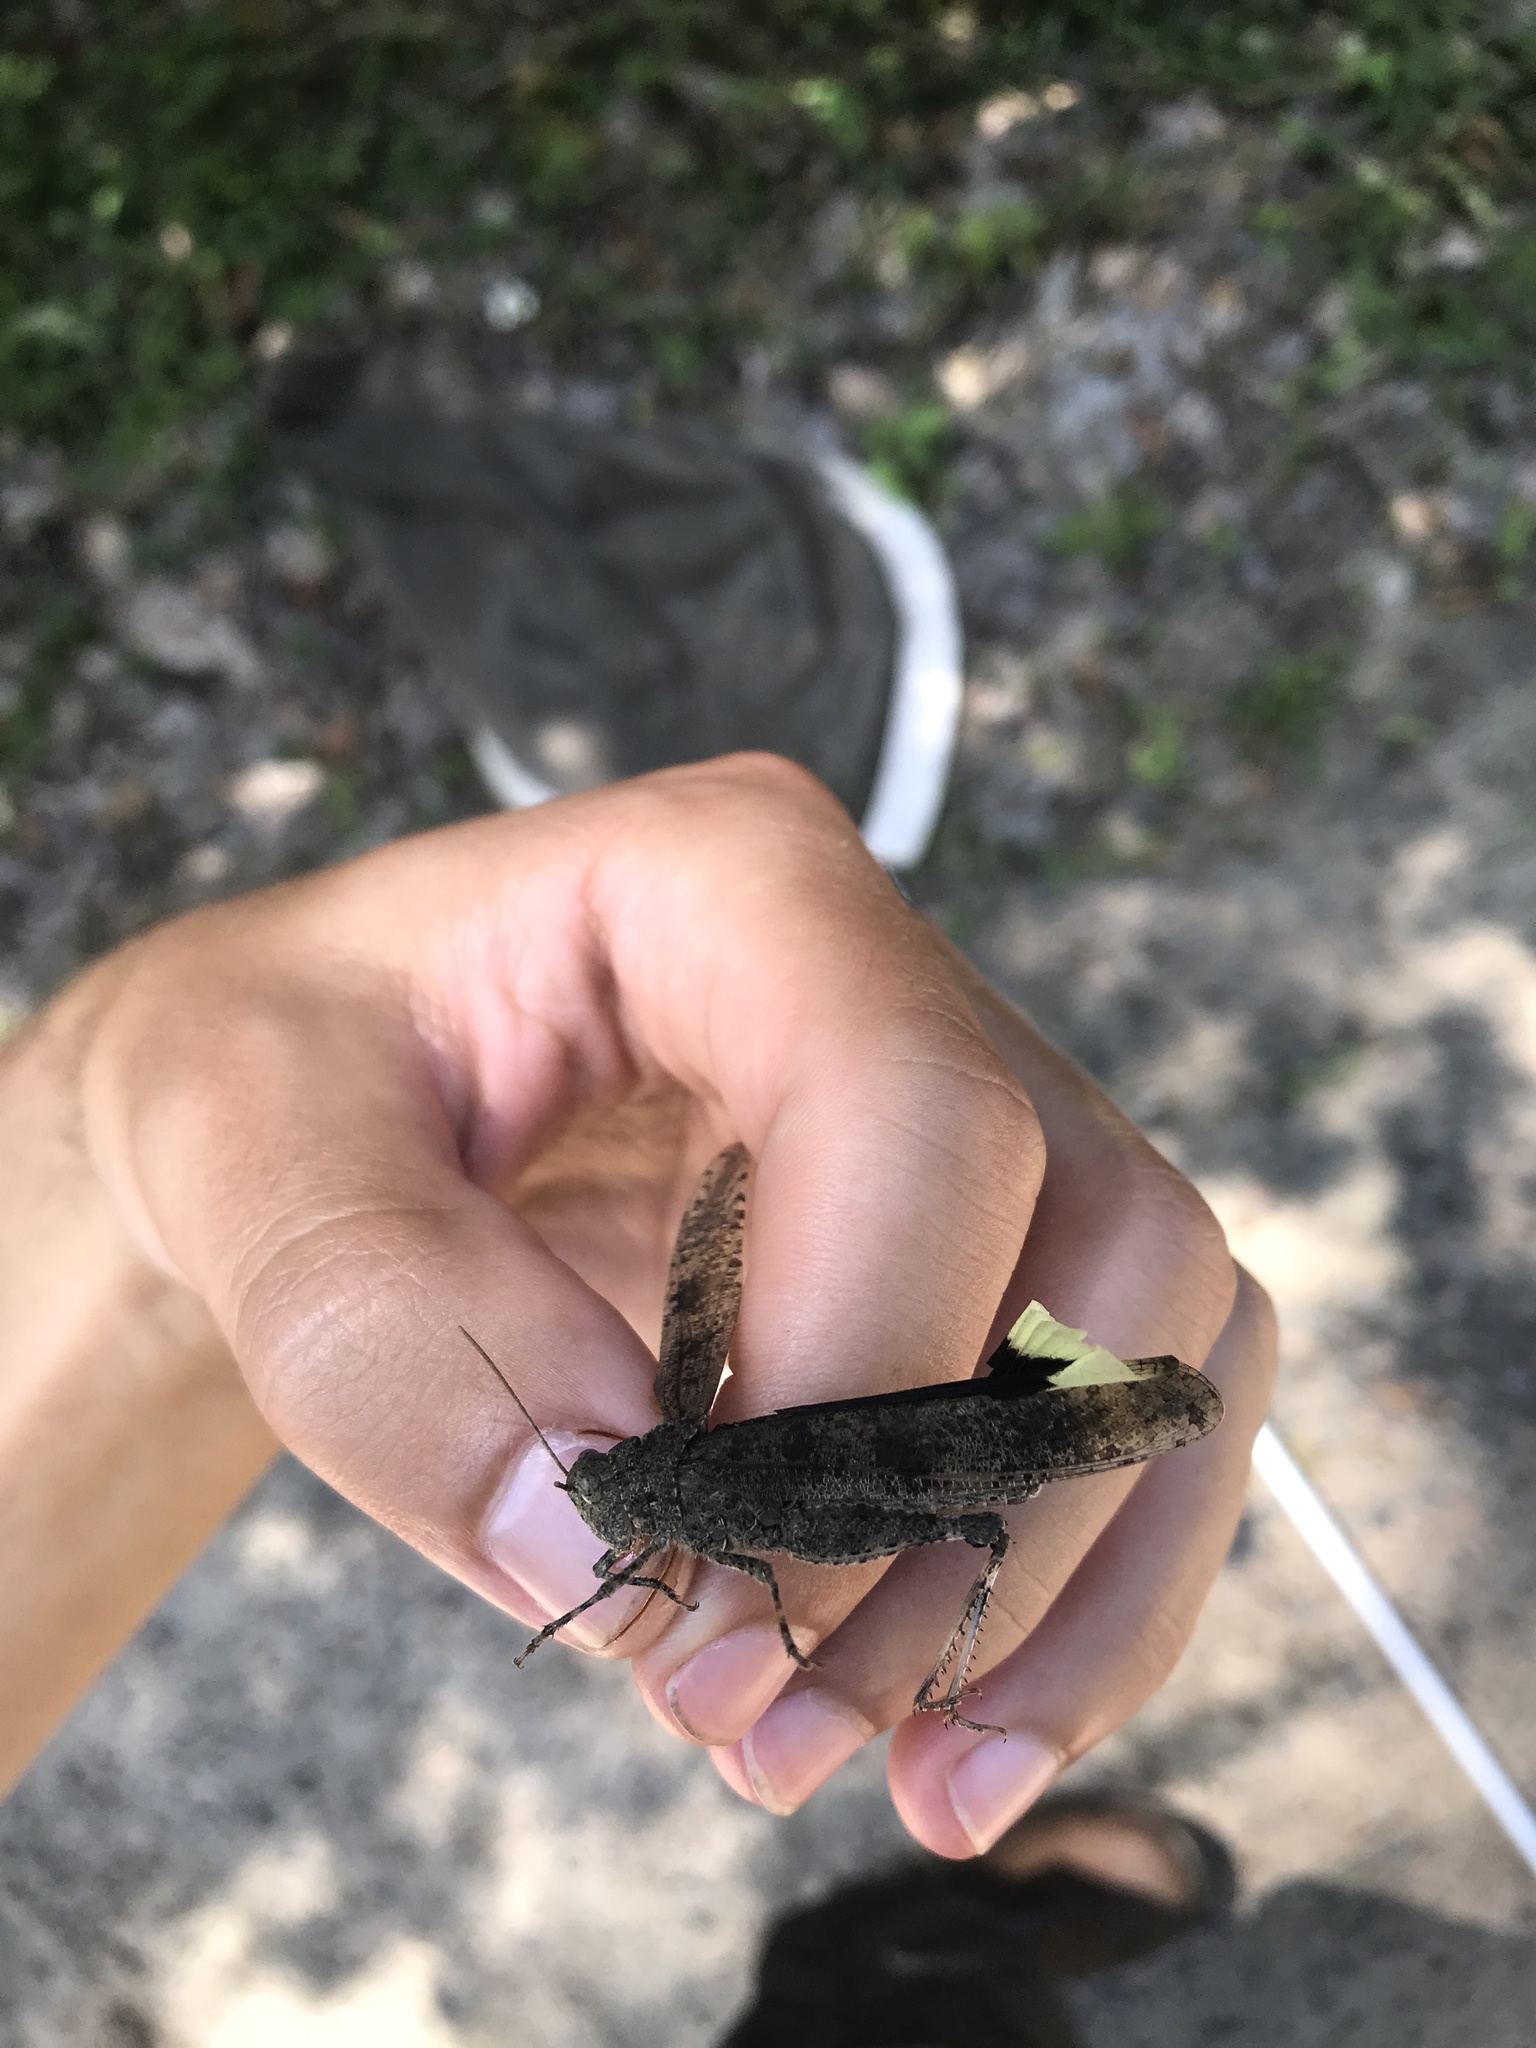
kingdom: Animalia
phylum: Arthropoda
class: Insecta
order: Orthoptera
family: Acrididae
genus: Dissosteira
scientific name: Dissosteira carolina
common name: Carolina grasshopper
